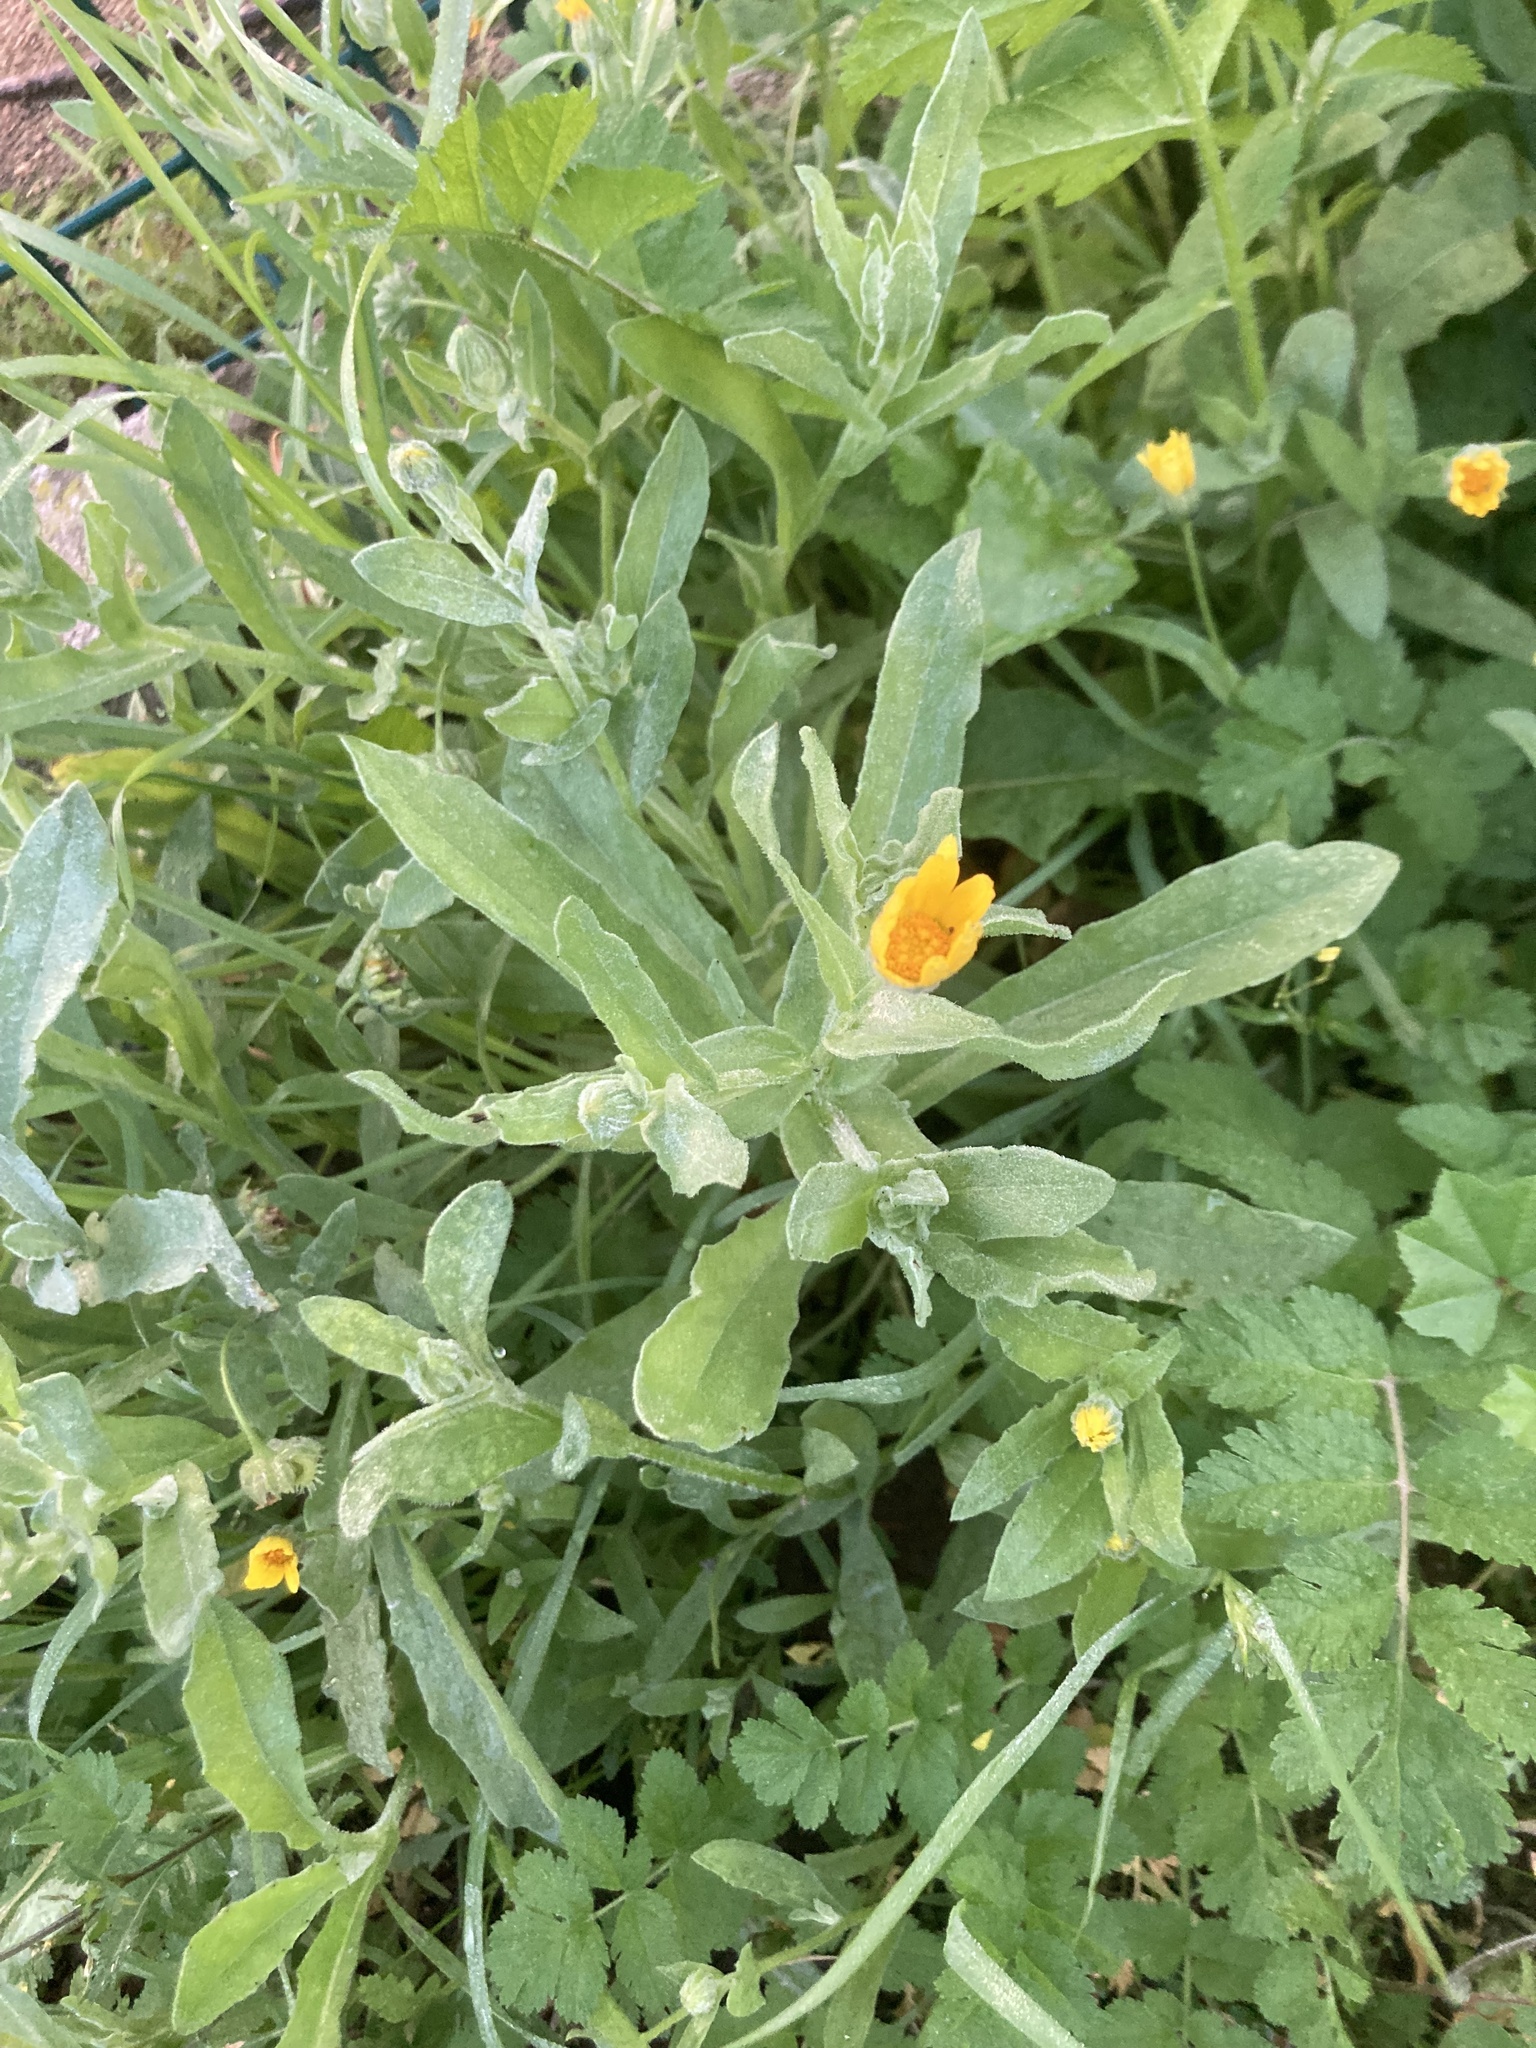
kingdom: Plantae
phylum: Tracheophyta
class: Magnoliopsida
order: Asterales
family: Asteraceae
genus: Calendula
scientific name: Calendula arvensis
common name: Field marigold
